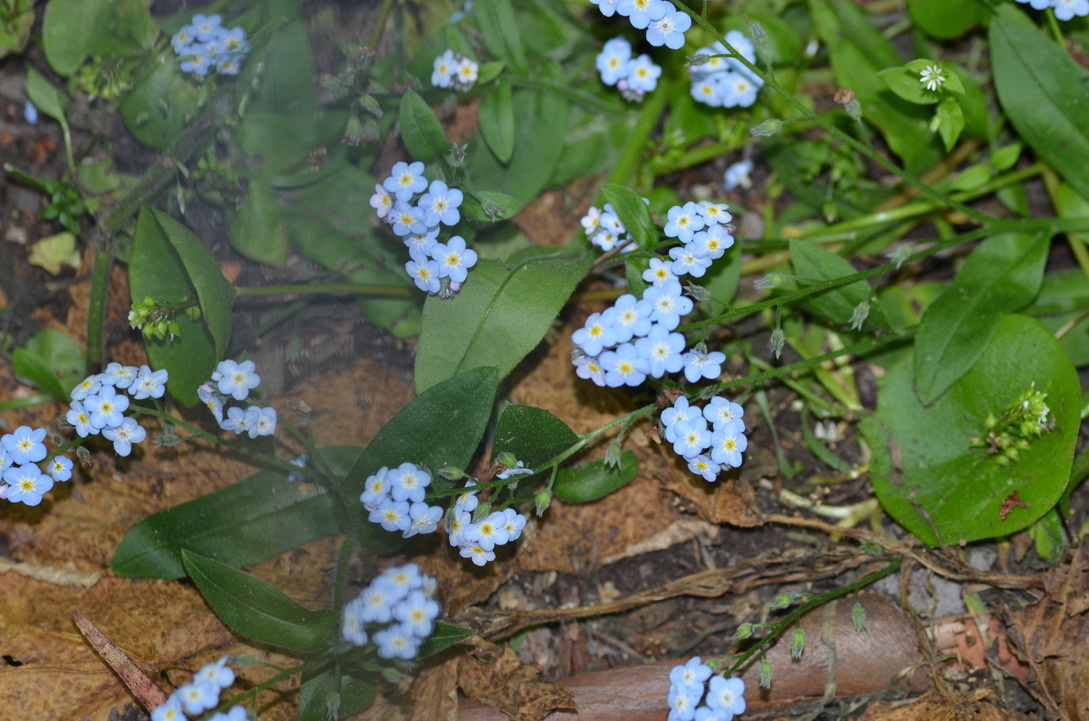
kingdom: Plantae
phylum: Tracheophyta
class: Magnoliopsida
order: Boraginales
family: Boraginaceae
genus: Myosotis
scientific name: Myosotis latifolia
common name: Broadleaf forget-me-not
